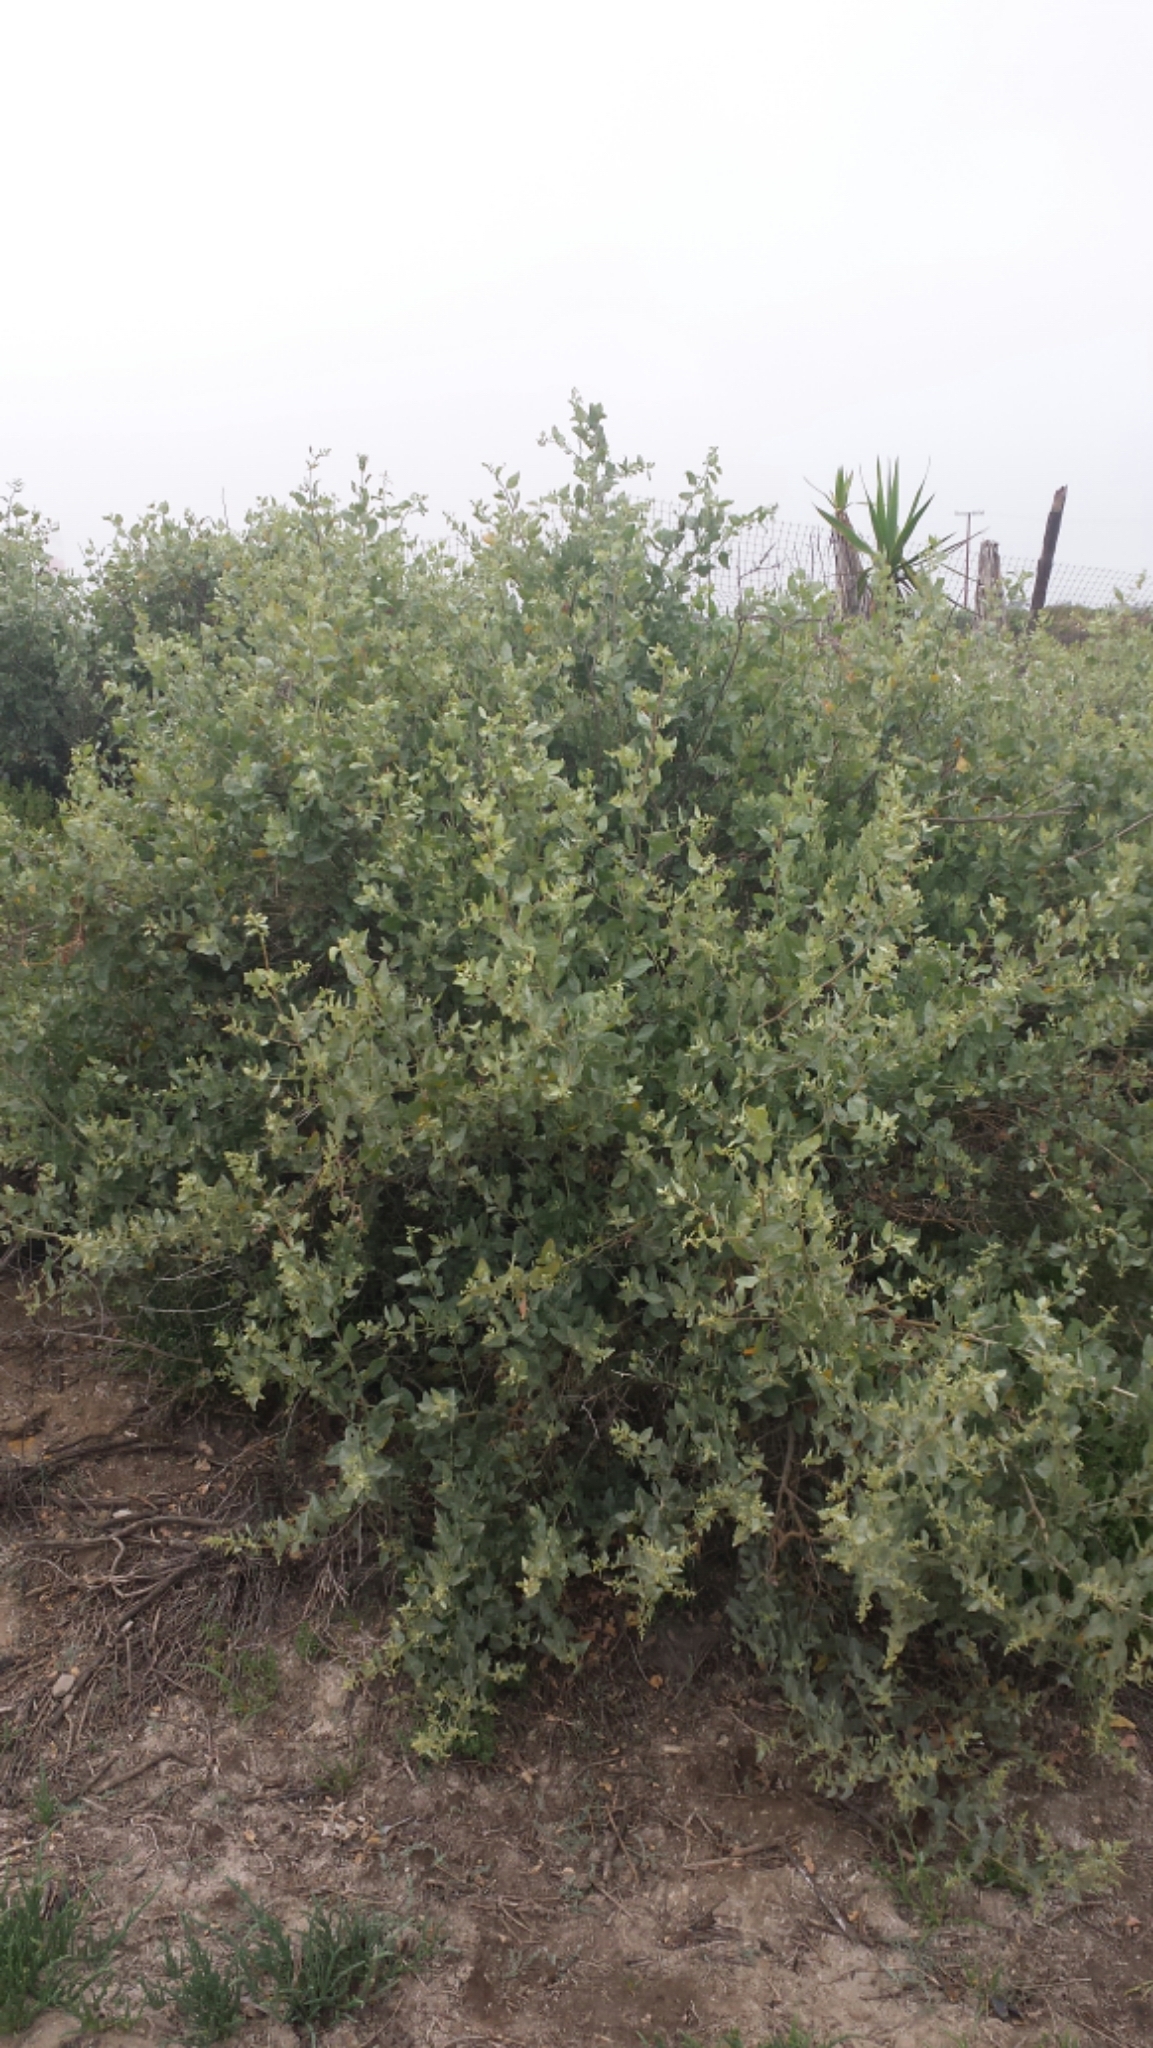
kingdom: Plantae
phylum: Tracheophyta
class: Magnoliopsida
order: Caryophyllales
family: Amaranthaceae
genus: Atriplex
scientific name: Atriplex lentiformis
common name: Big saltbush
